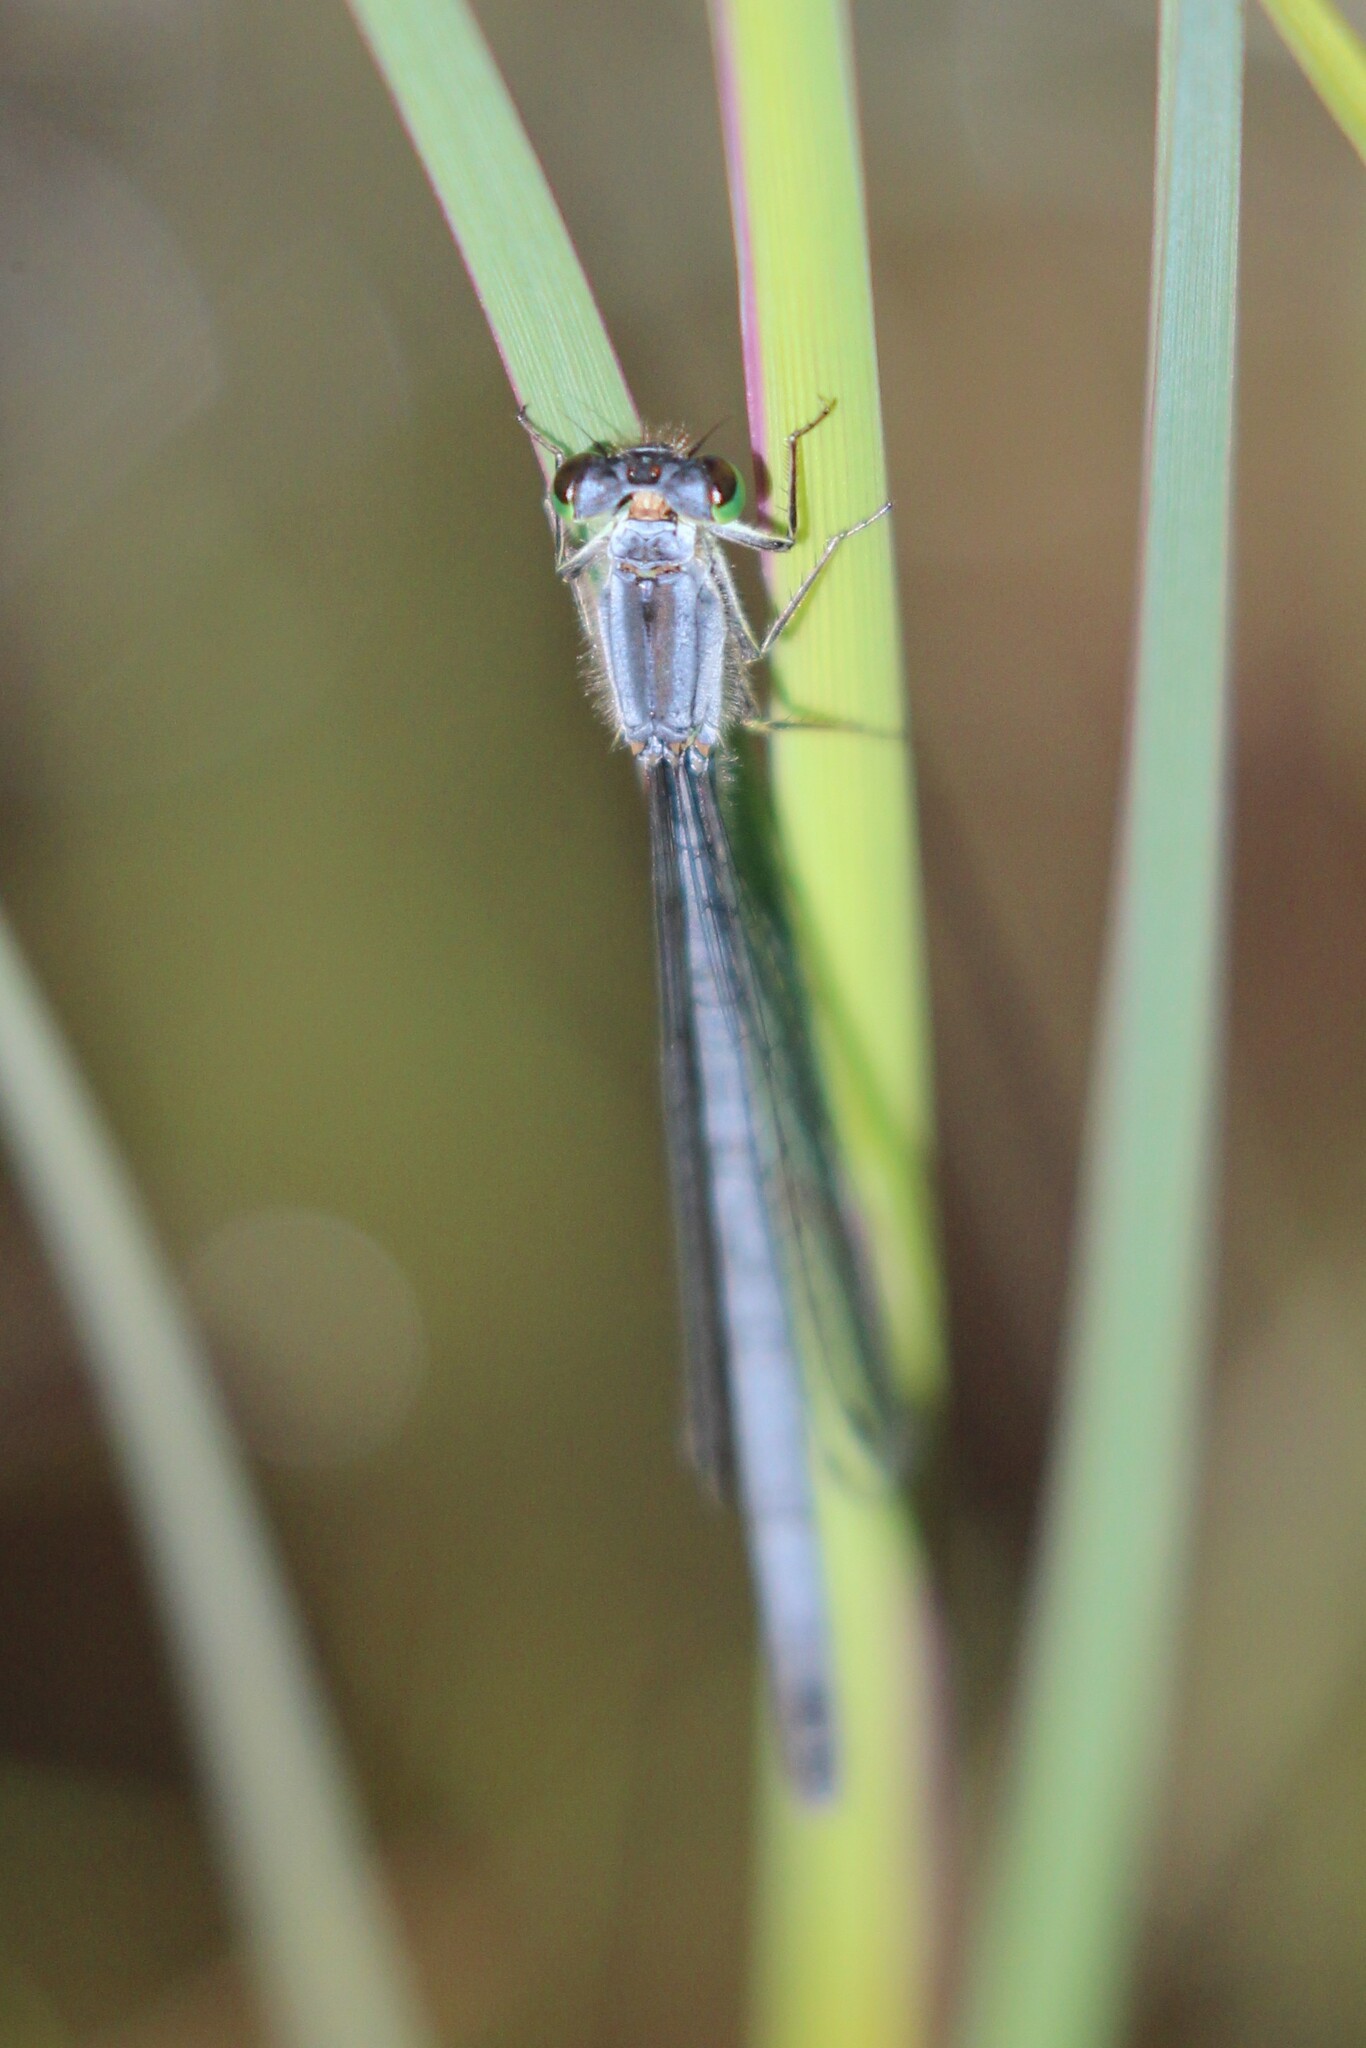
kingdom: Animalia
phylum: Arthropoda
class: Insecta
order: Odonata
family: Coenagrionidae
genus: Ischnura
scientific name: Ischnura verticalis
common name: Eastern forktail
